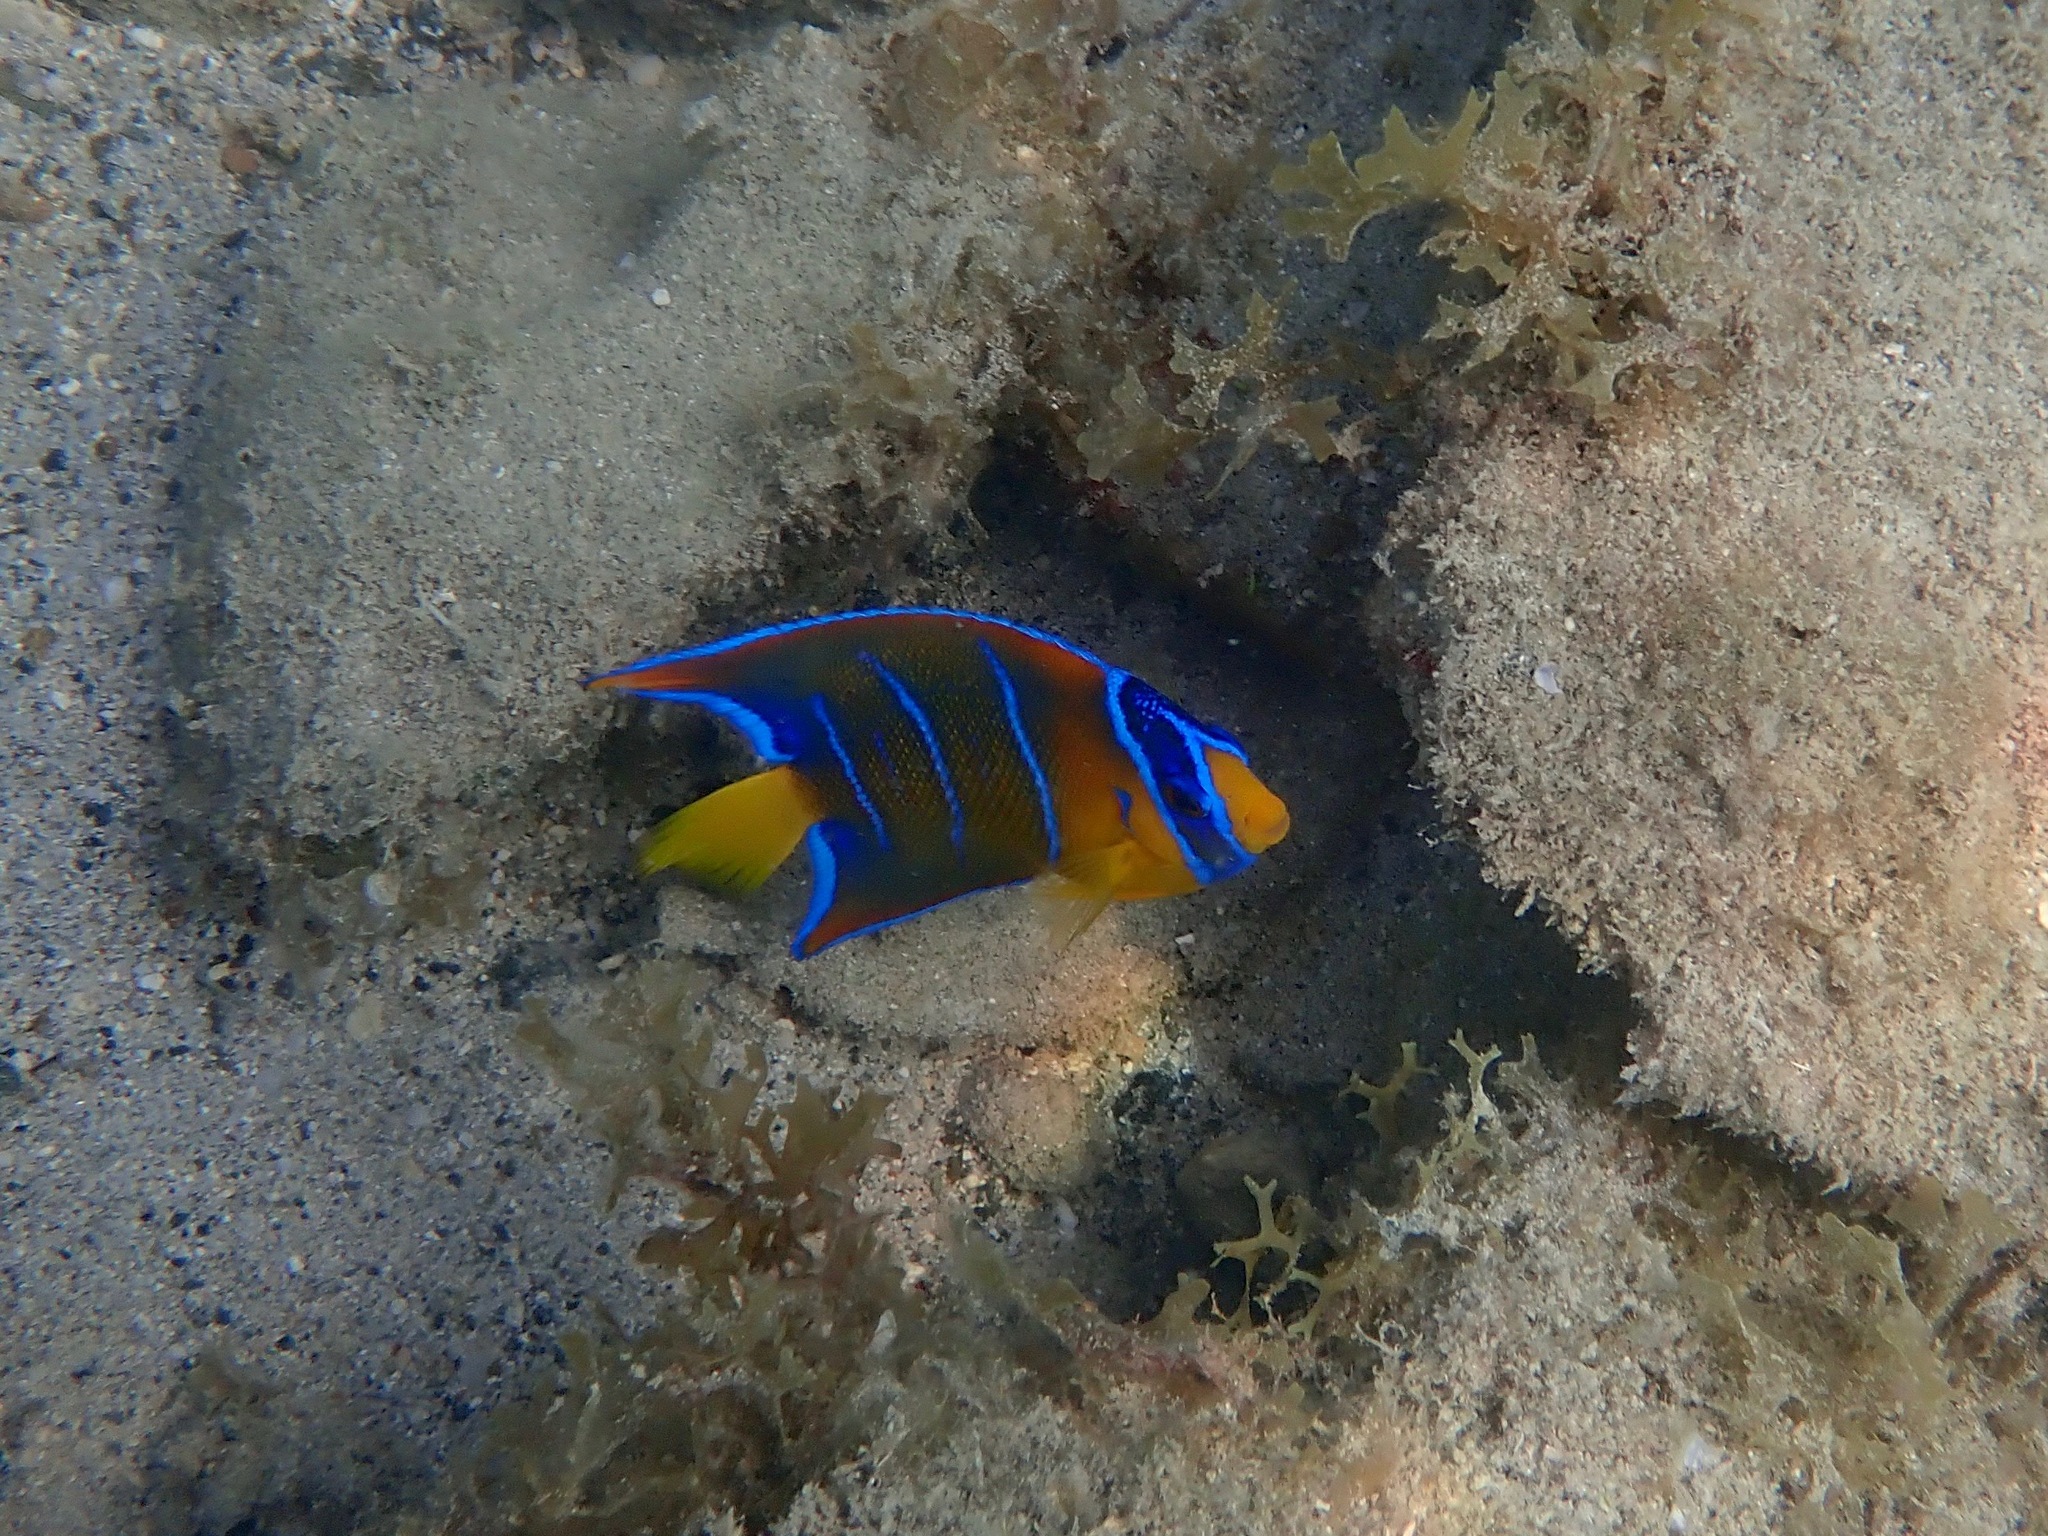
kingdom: Animalia
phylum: Chordata
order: Perciformes
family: Pomacanthidae
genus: Holacanthus
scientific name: Holacanthus ciliaris
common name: Queen angelfish
